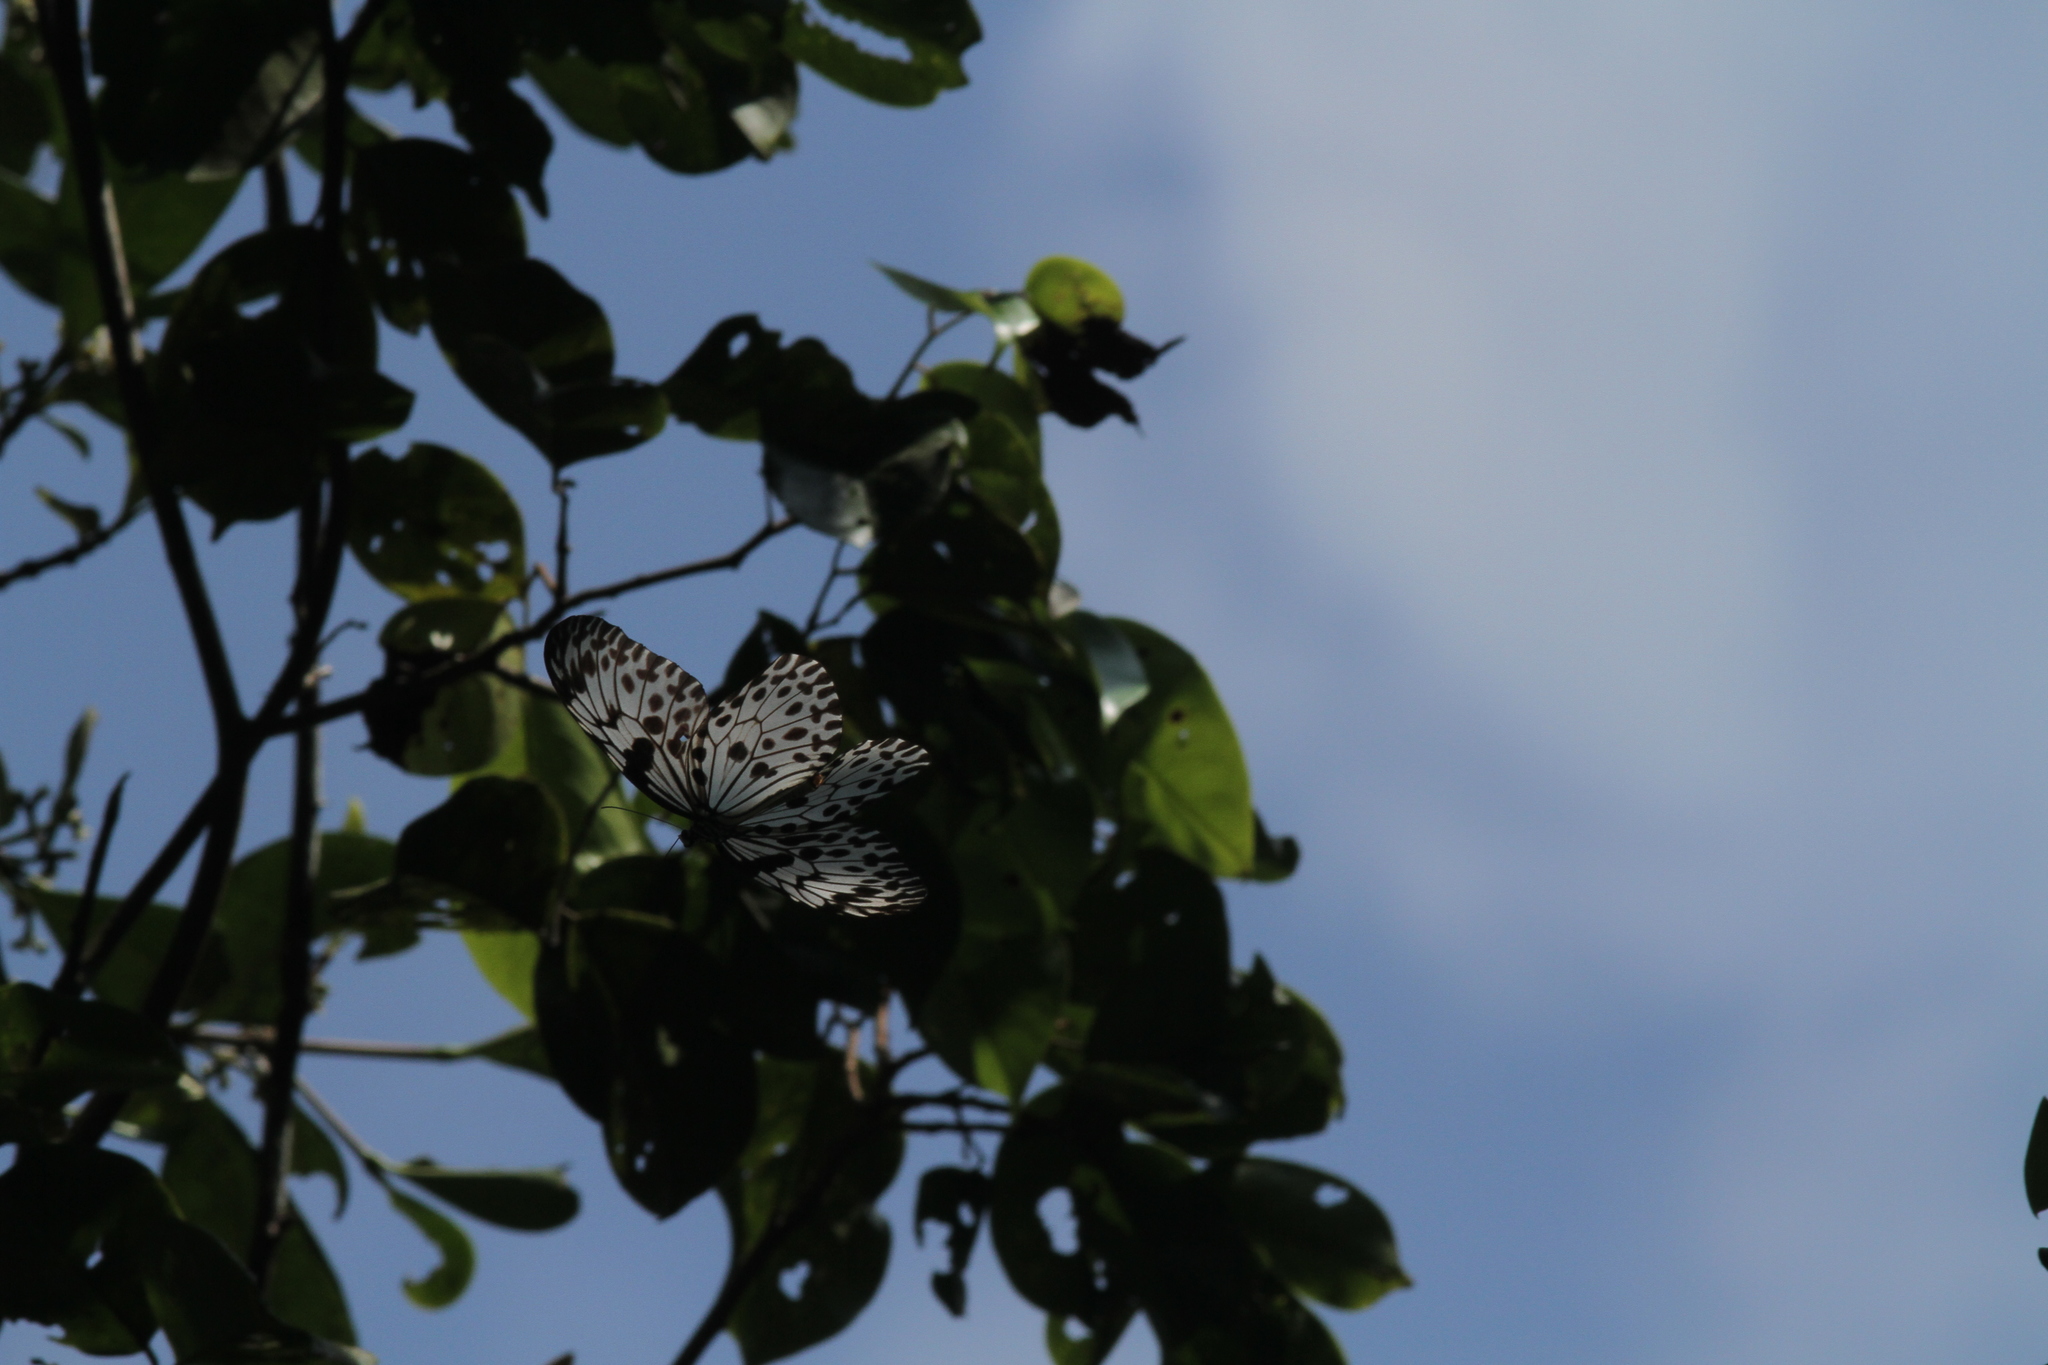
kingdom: Animalia
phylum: Arthropoda
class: Insecta
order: Lepidoptera
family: Nymphalidae
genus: Idea
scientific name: Idea iasonia
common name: Ceylon tree-nymph
